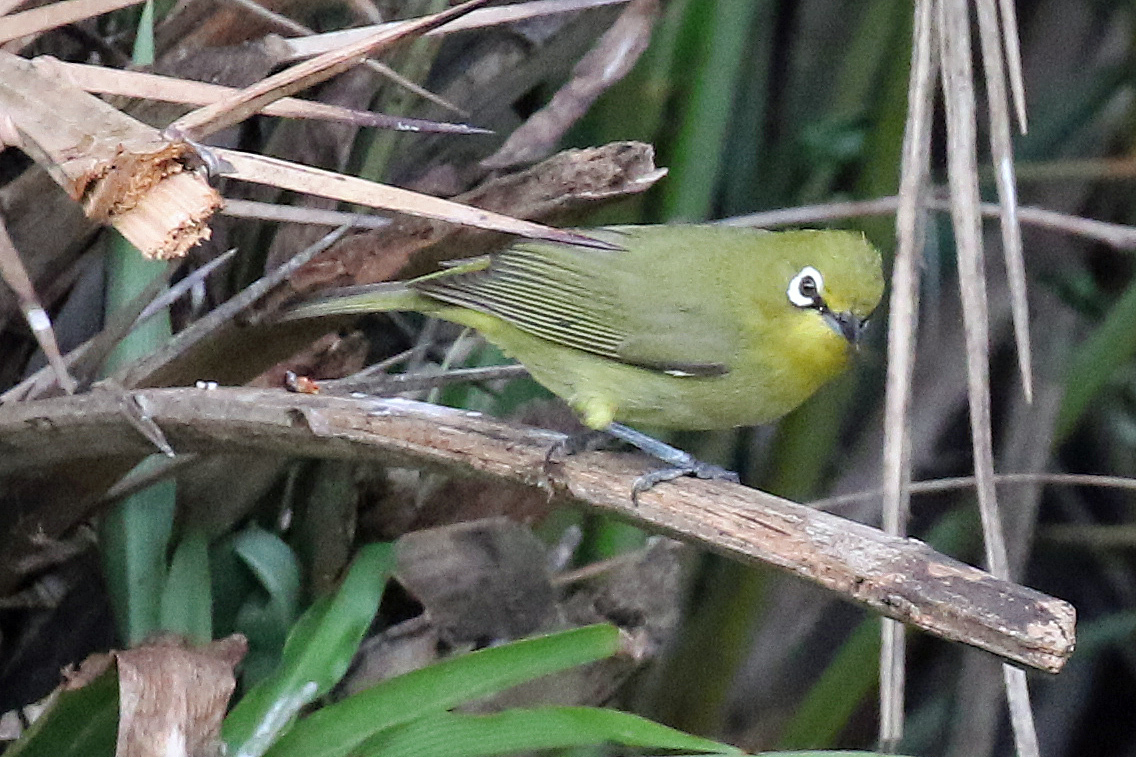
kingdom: Animalia
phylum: Chordata
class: Aves
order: Passeriformes
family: Zosteropidae
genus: Zosterops
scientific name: Zosterops virens
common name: Cape white-eye
